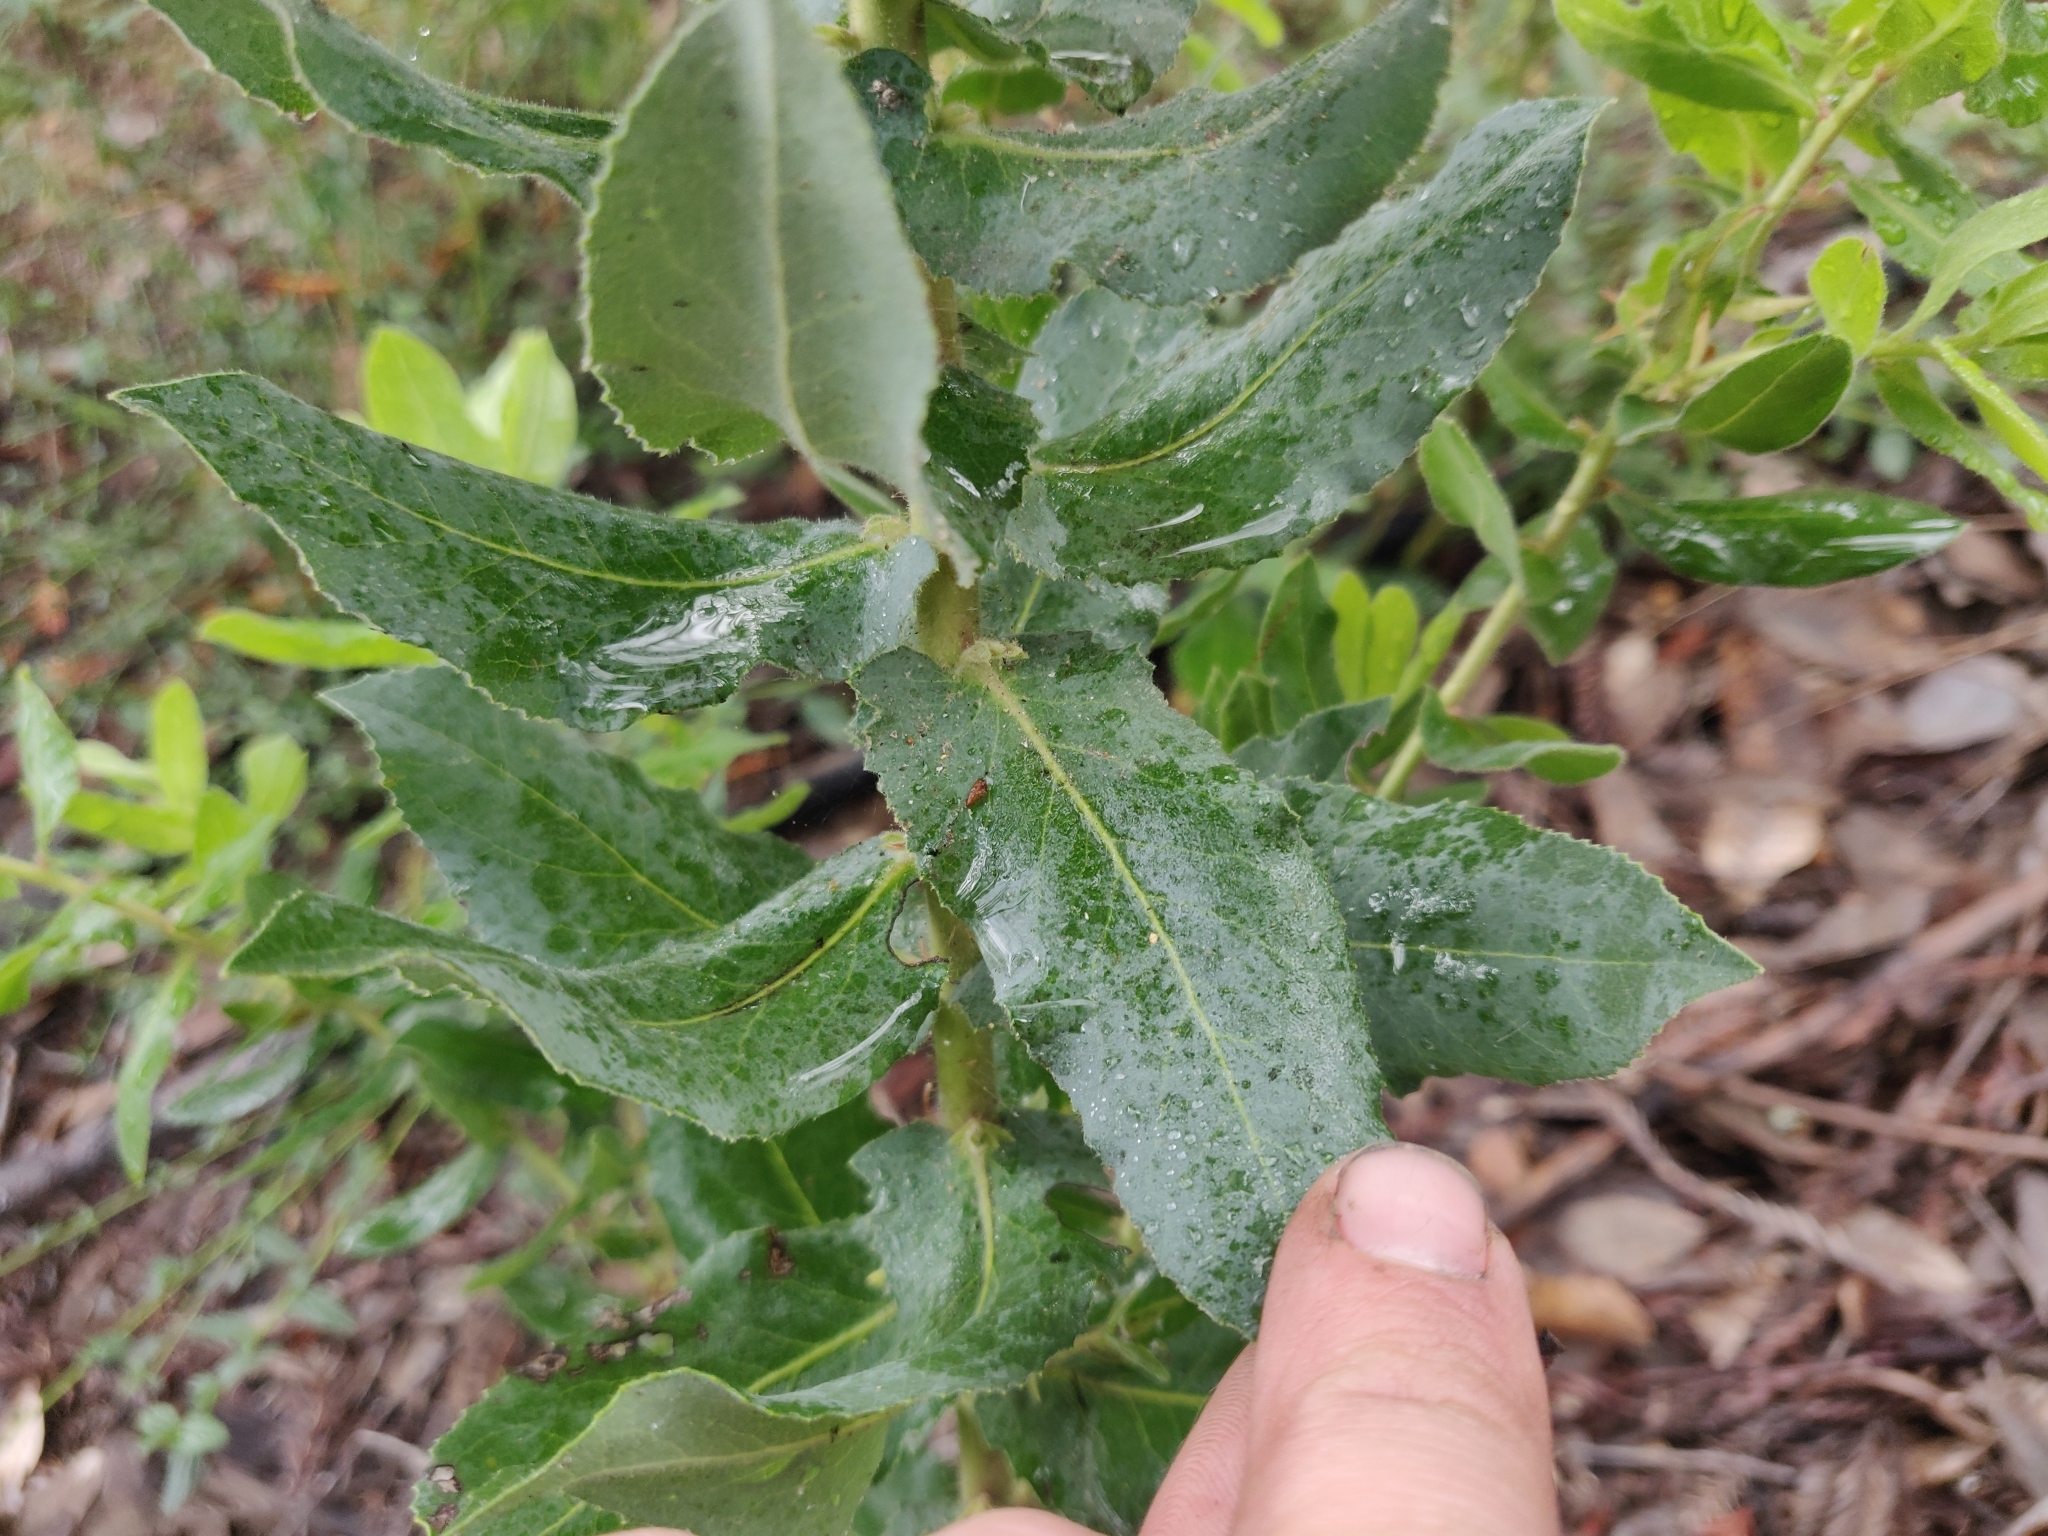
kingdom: Plantae
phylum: Tracheophyta
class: Magnoliopsida
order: Ericales
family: Ericaceae
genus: Arctostaphylos
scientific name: Arctostaphylos andersonii
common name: Santa cruz manzanita
